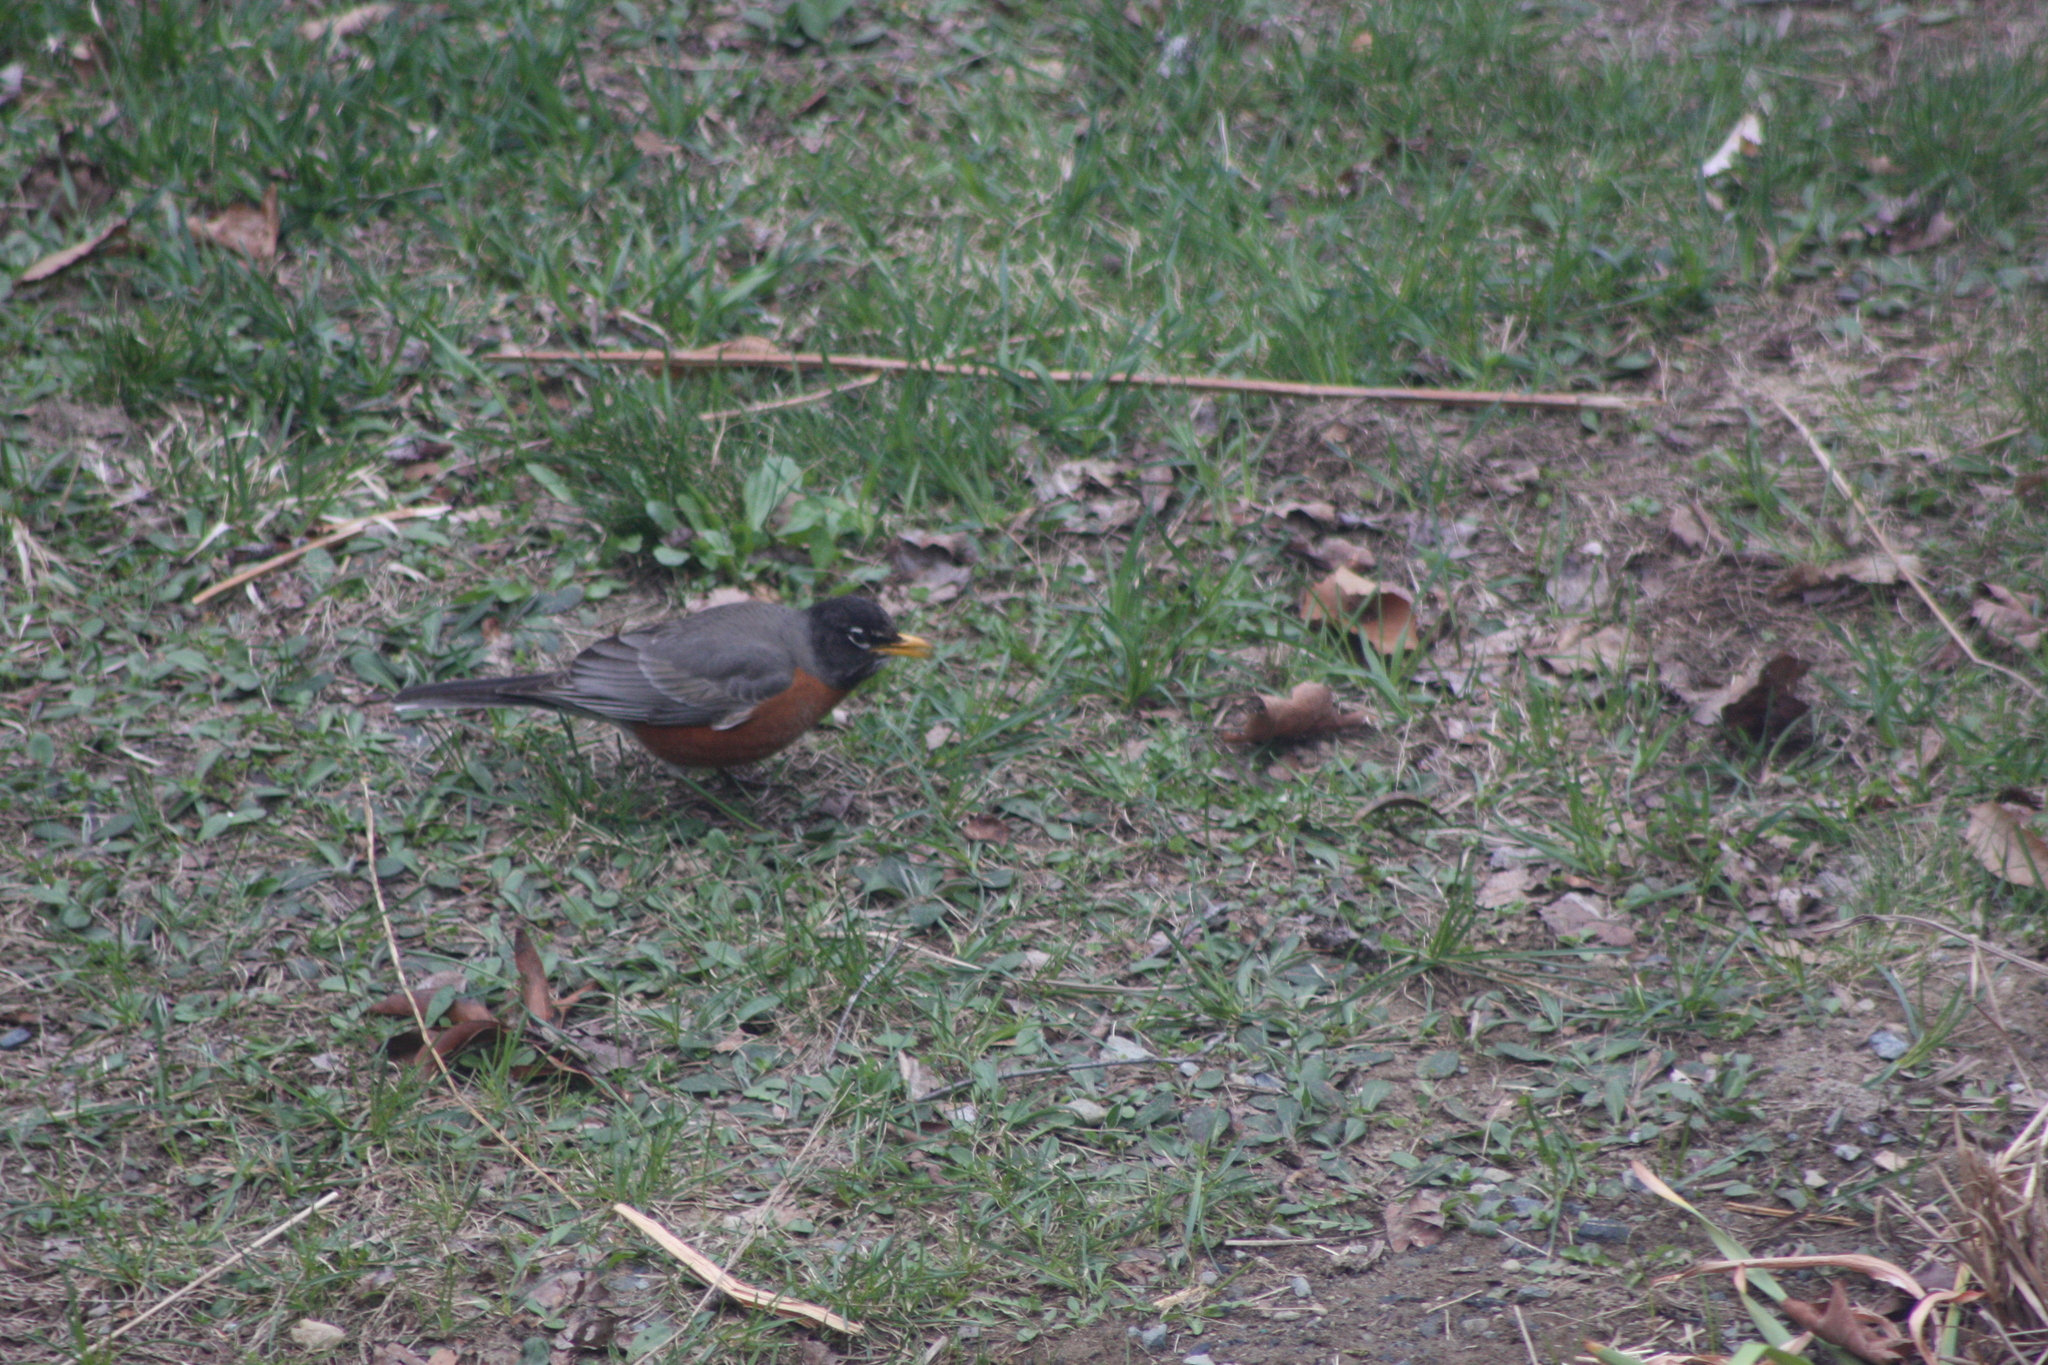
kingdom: Animalia
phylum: Chordata
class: Aves
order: Passeriformes
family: Turdidae
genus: Turdus
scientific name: Turdus migratorius
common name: American robin
